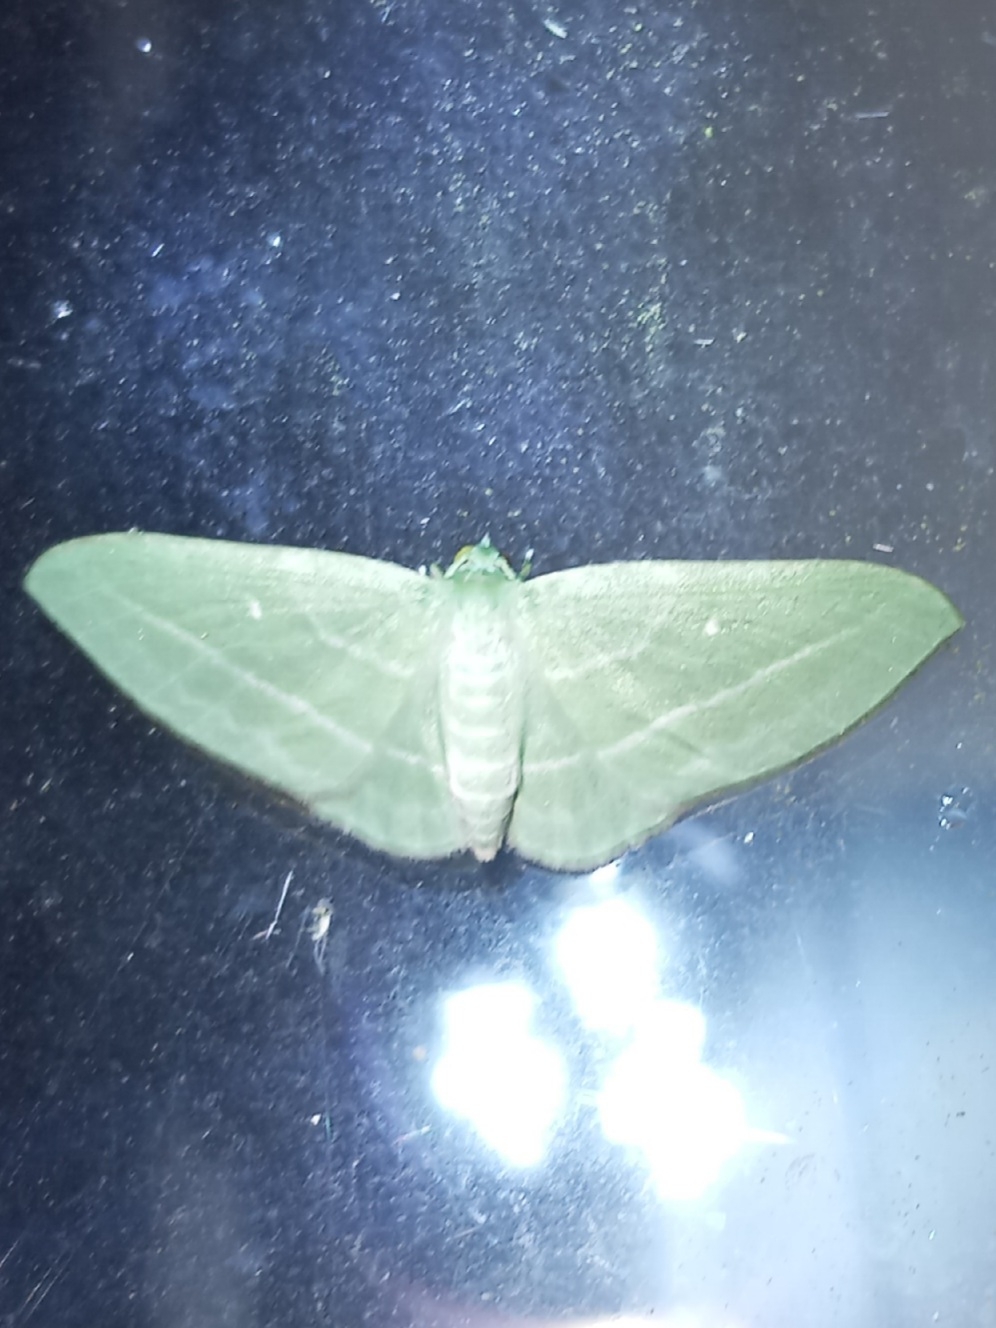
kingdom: Animalia
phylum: Arthropoda
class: Insecta
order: Lepidoptera
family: Geometridae
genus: Dyspteris
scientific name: Dyspteris abortivaria
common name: Bad-wing
